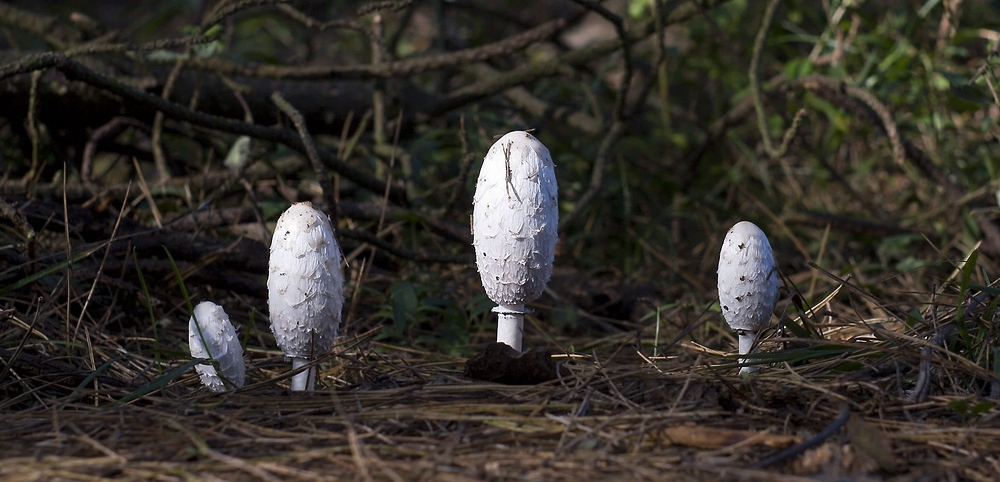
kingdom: Fungi
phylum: Basidiomycota
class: Agaricomycetes
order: Agaricales
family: Agaricaceae
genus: Coprinus
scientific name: Coprinus comatus
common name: Lawyer's wig
